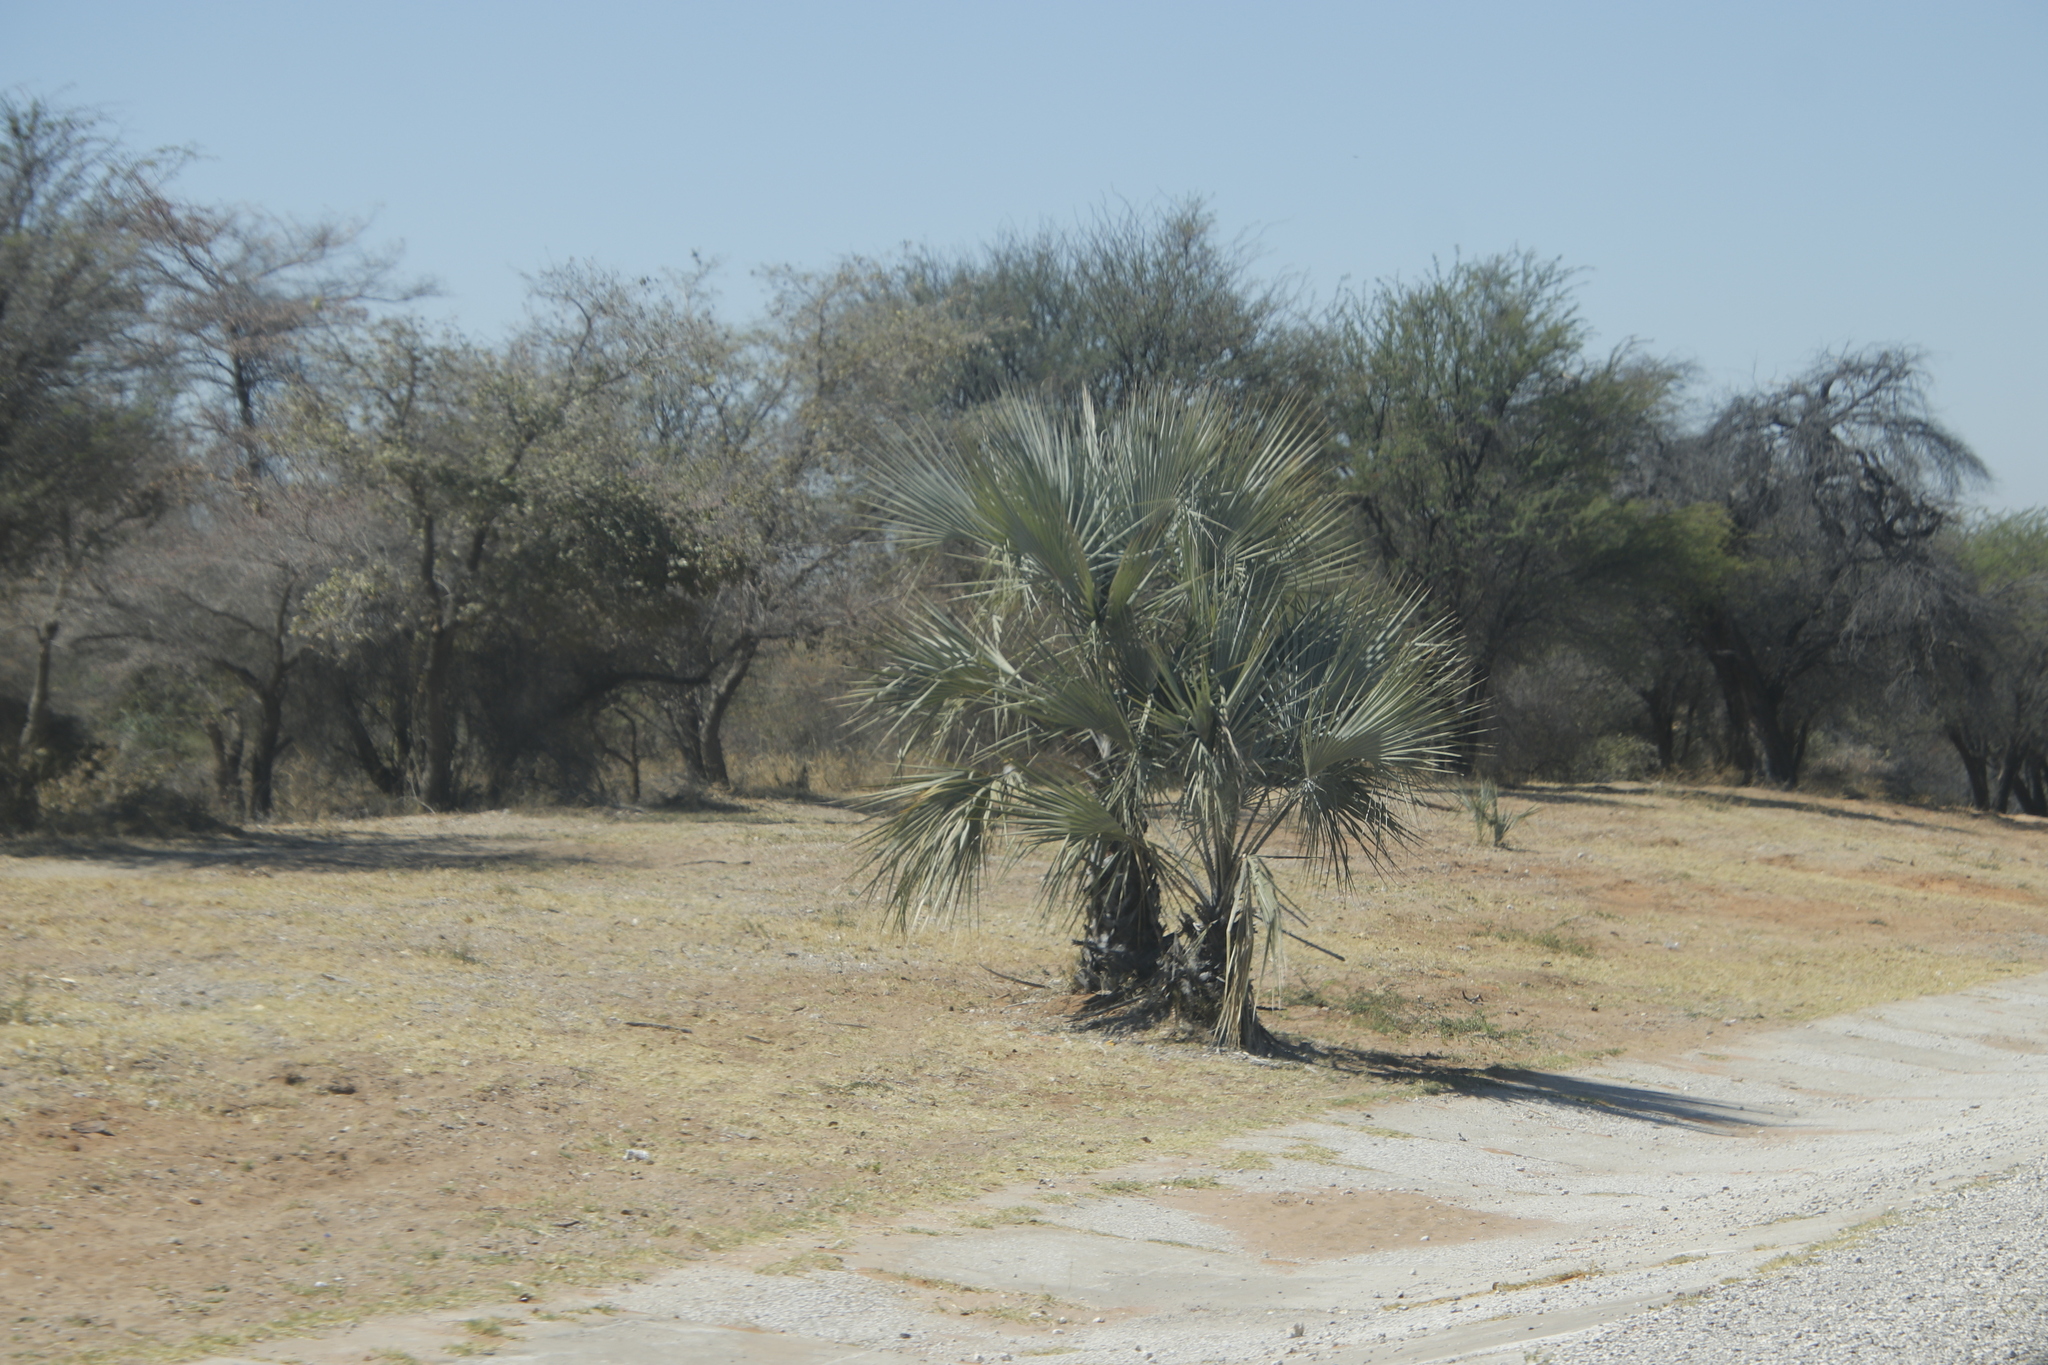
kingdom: Plantae
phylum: Tracheophyta
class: Liliopsida
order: Arecales
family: Arecaceae
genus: Hyphaene
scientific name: Hyphaene petersiana
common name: African ivory nut palm
